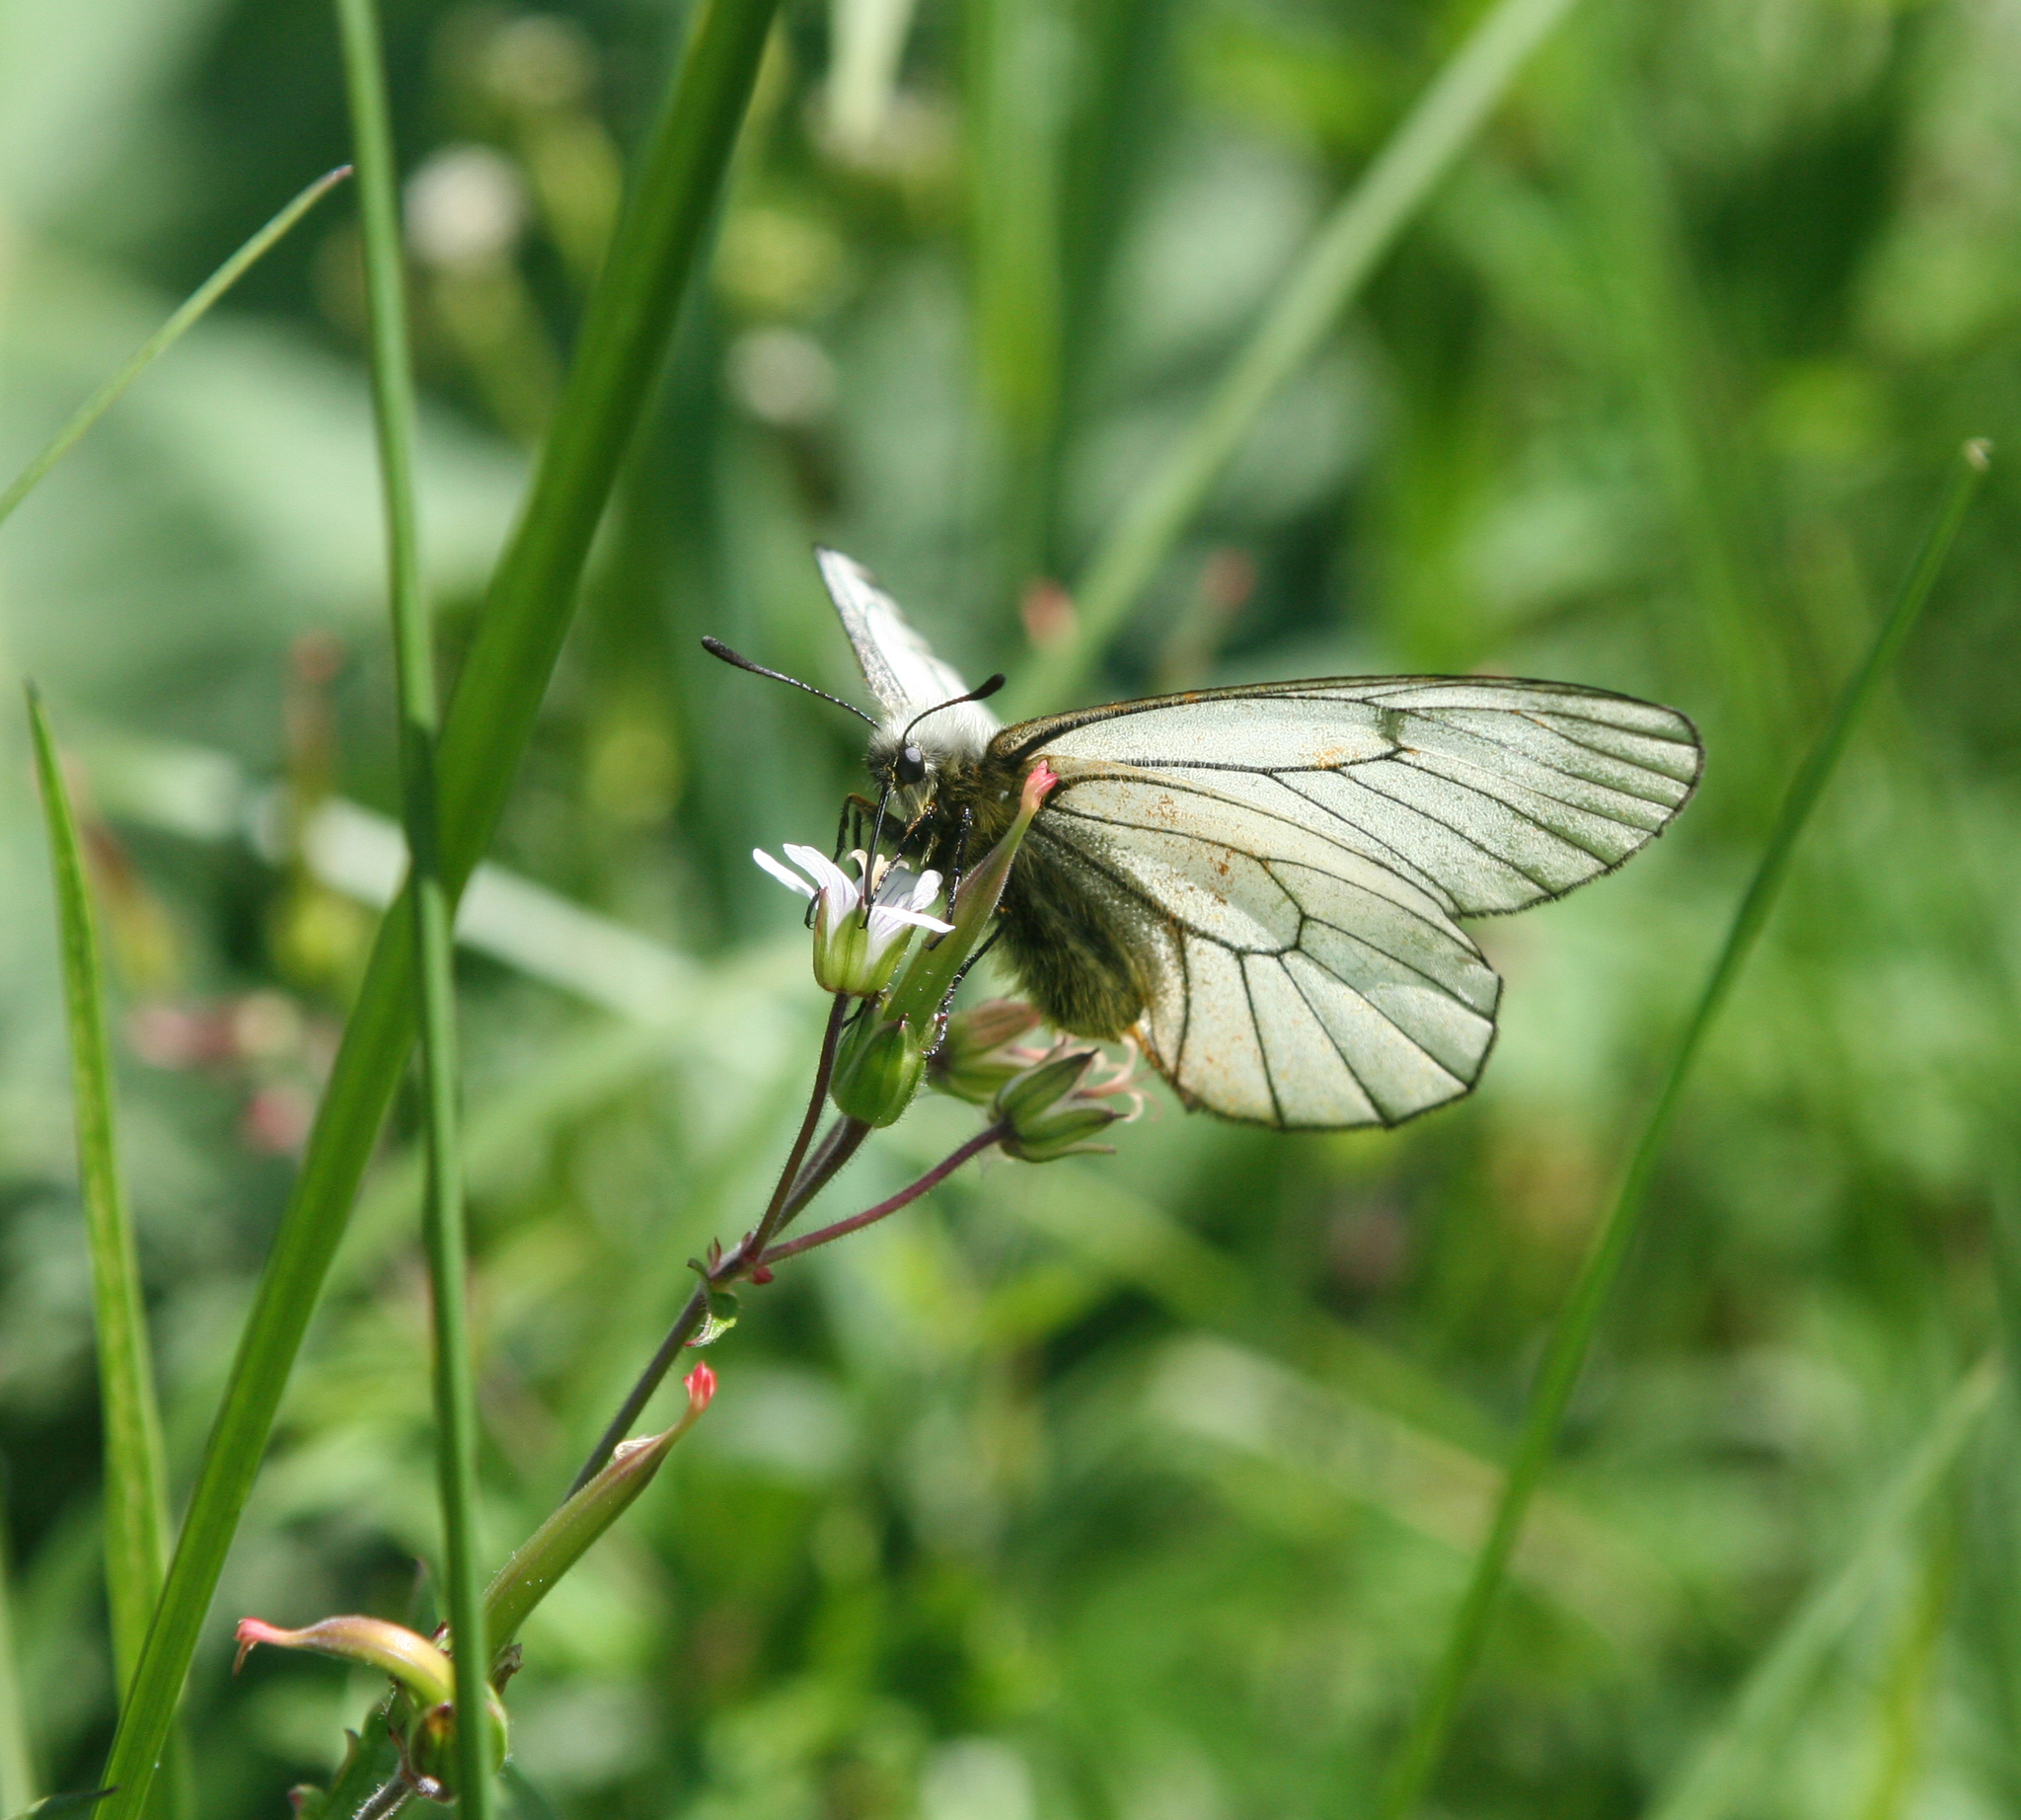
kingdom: Animalia
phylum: Arthropoda
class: Insecta
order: Lepidoptera
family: Papilionidae
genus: Parnassius
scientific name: Parnassius stubbendorfii
